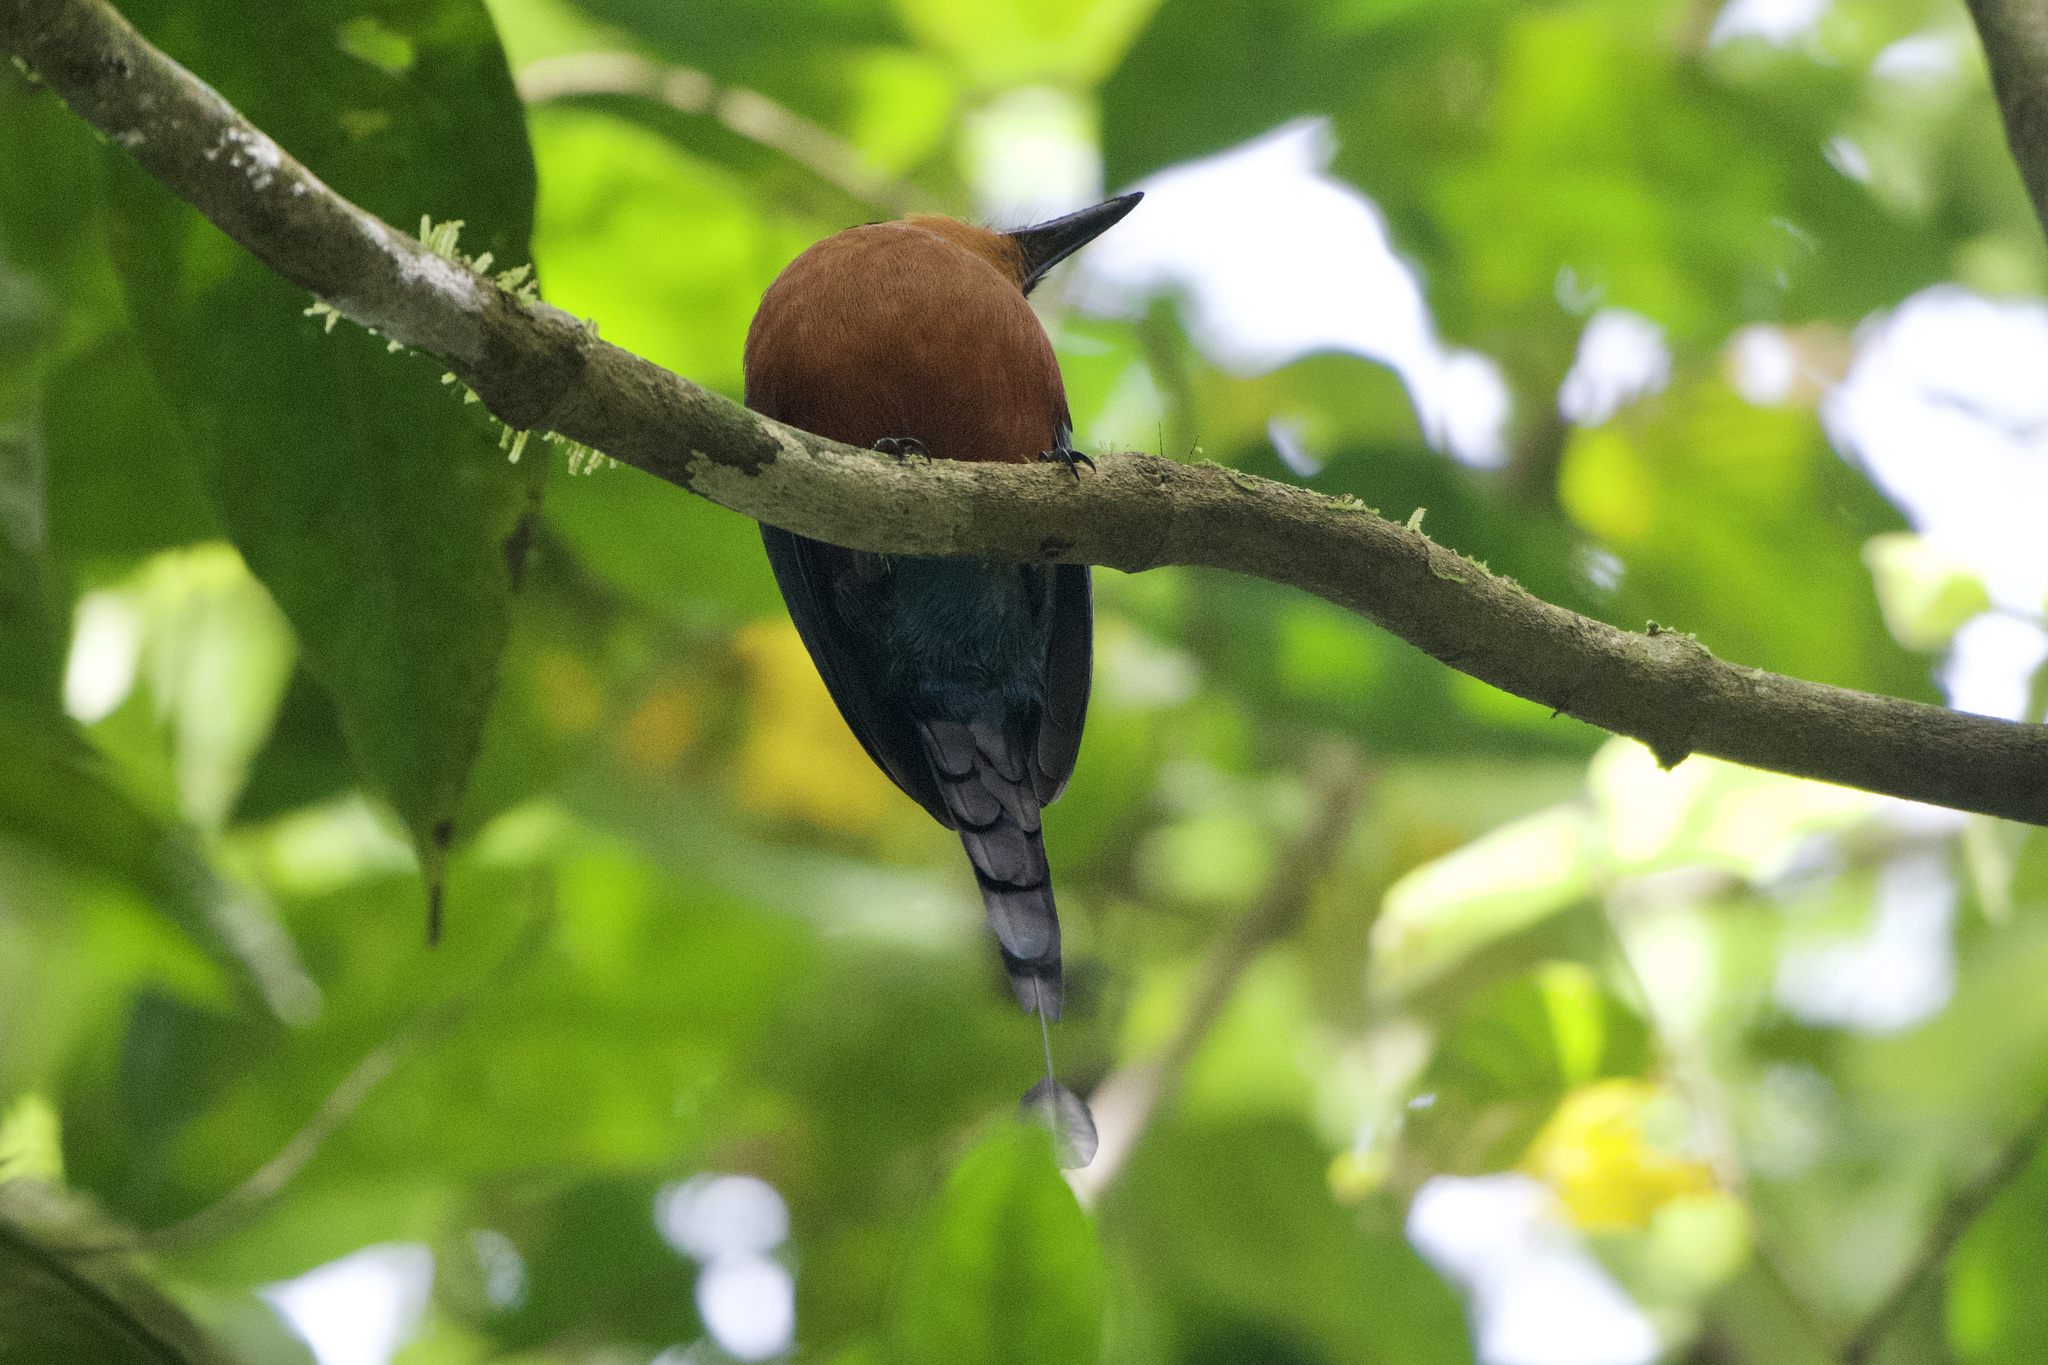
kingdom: Animalia
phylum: Chordata
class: Aves
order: Coraciiformes
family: Momotidae
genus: Baryphthengus
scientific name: Baryphthengus martii
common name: Rufous motmot
